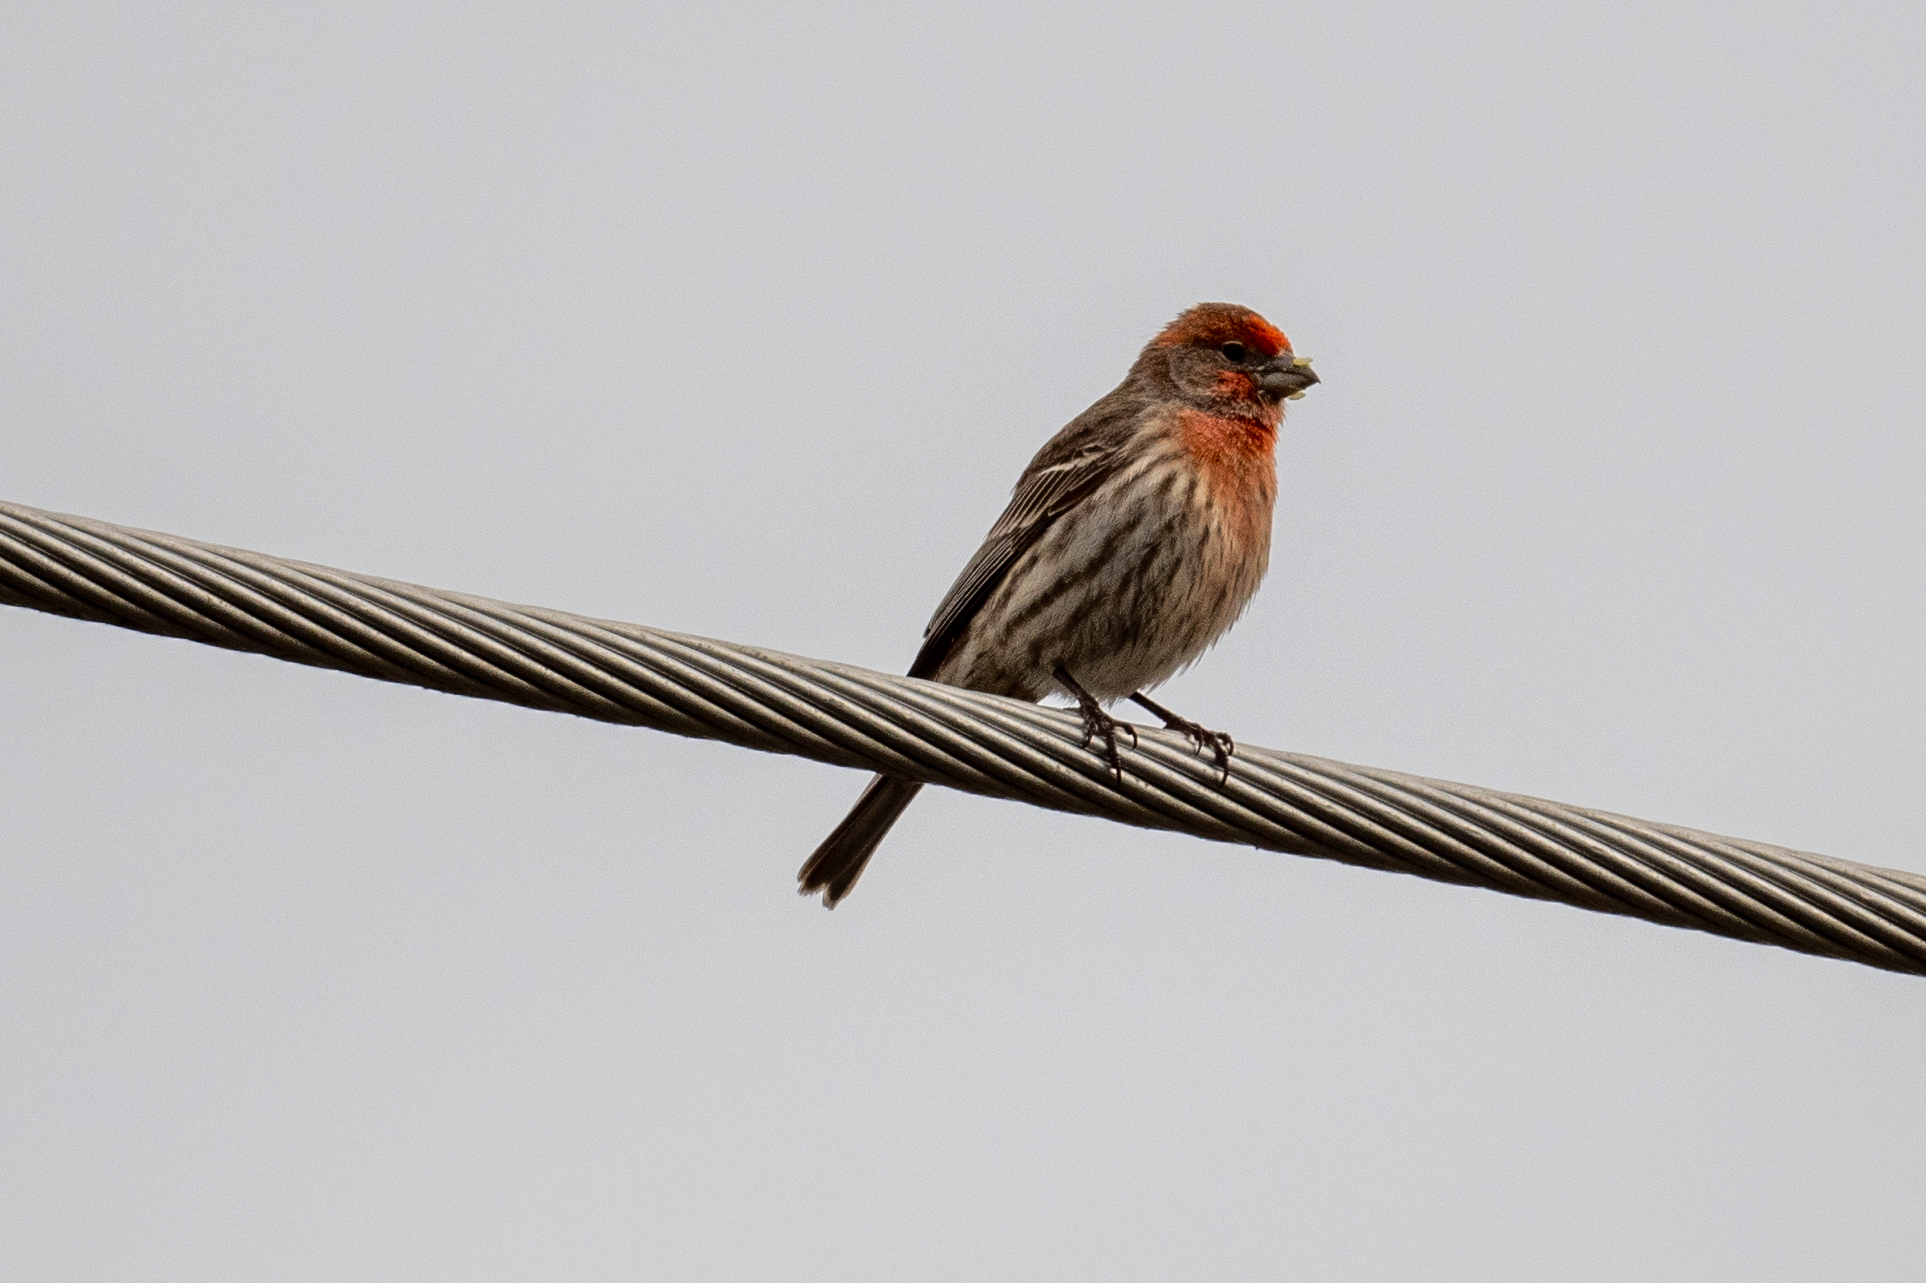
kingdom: Animalia
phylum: Chordata
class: Aves
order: Passeriformes
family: Fringillidae
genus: Haemorhous
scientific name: Haemorhous mexicanus
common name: House finch
